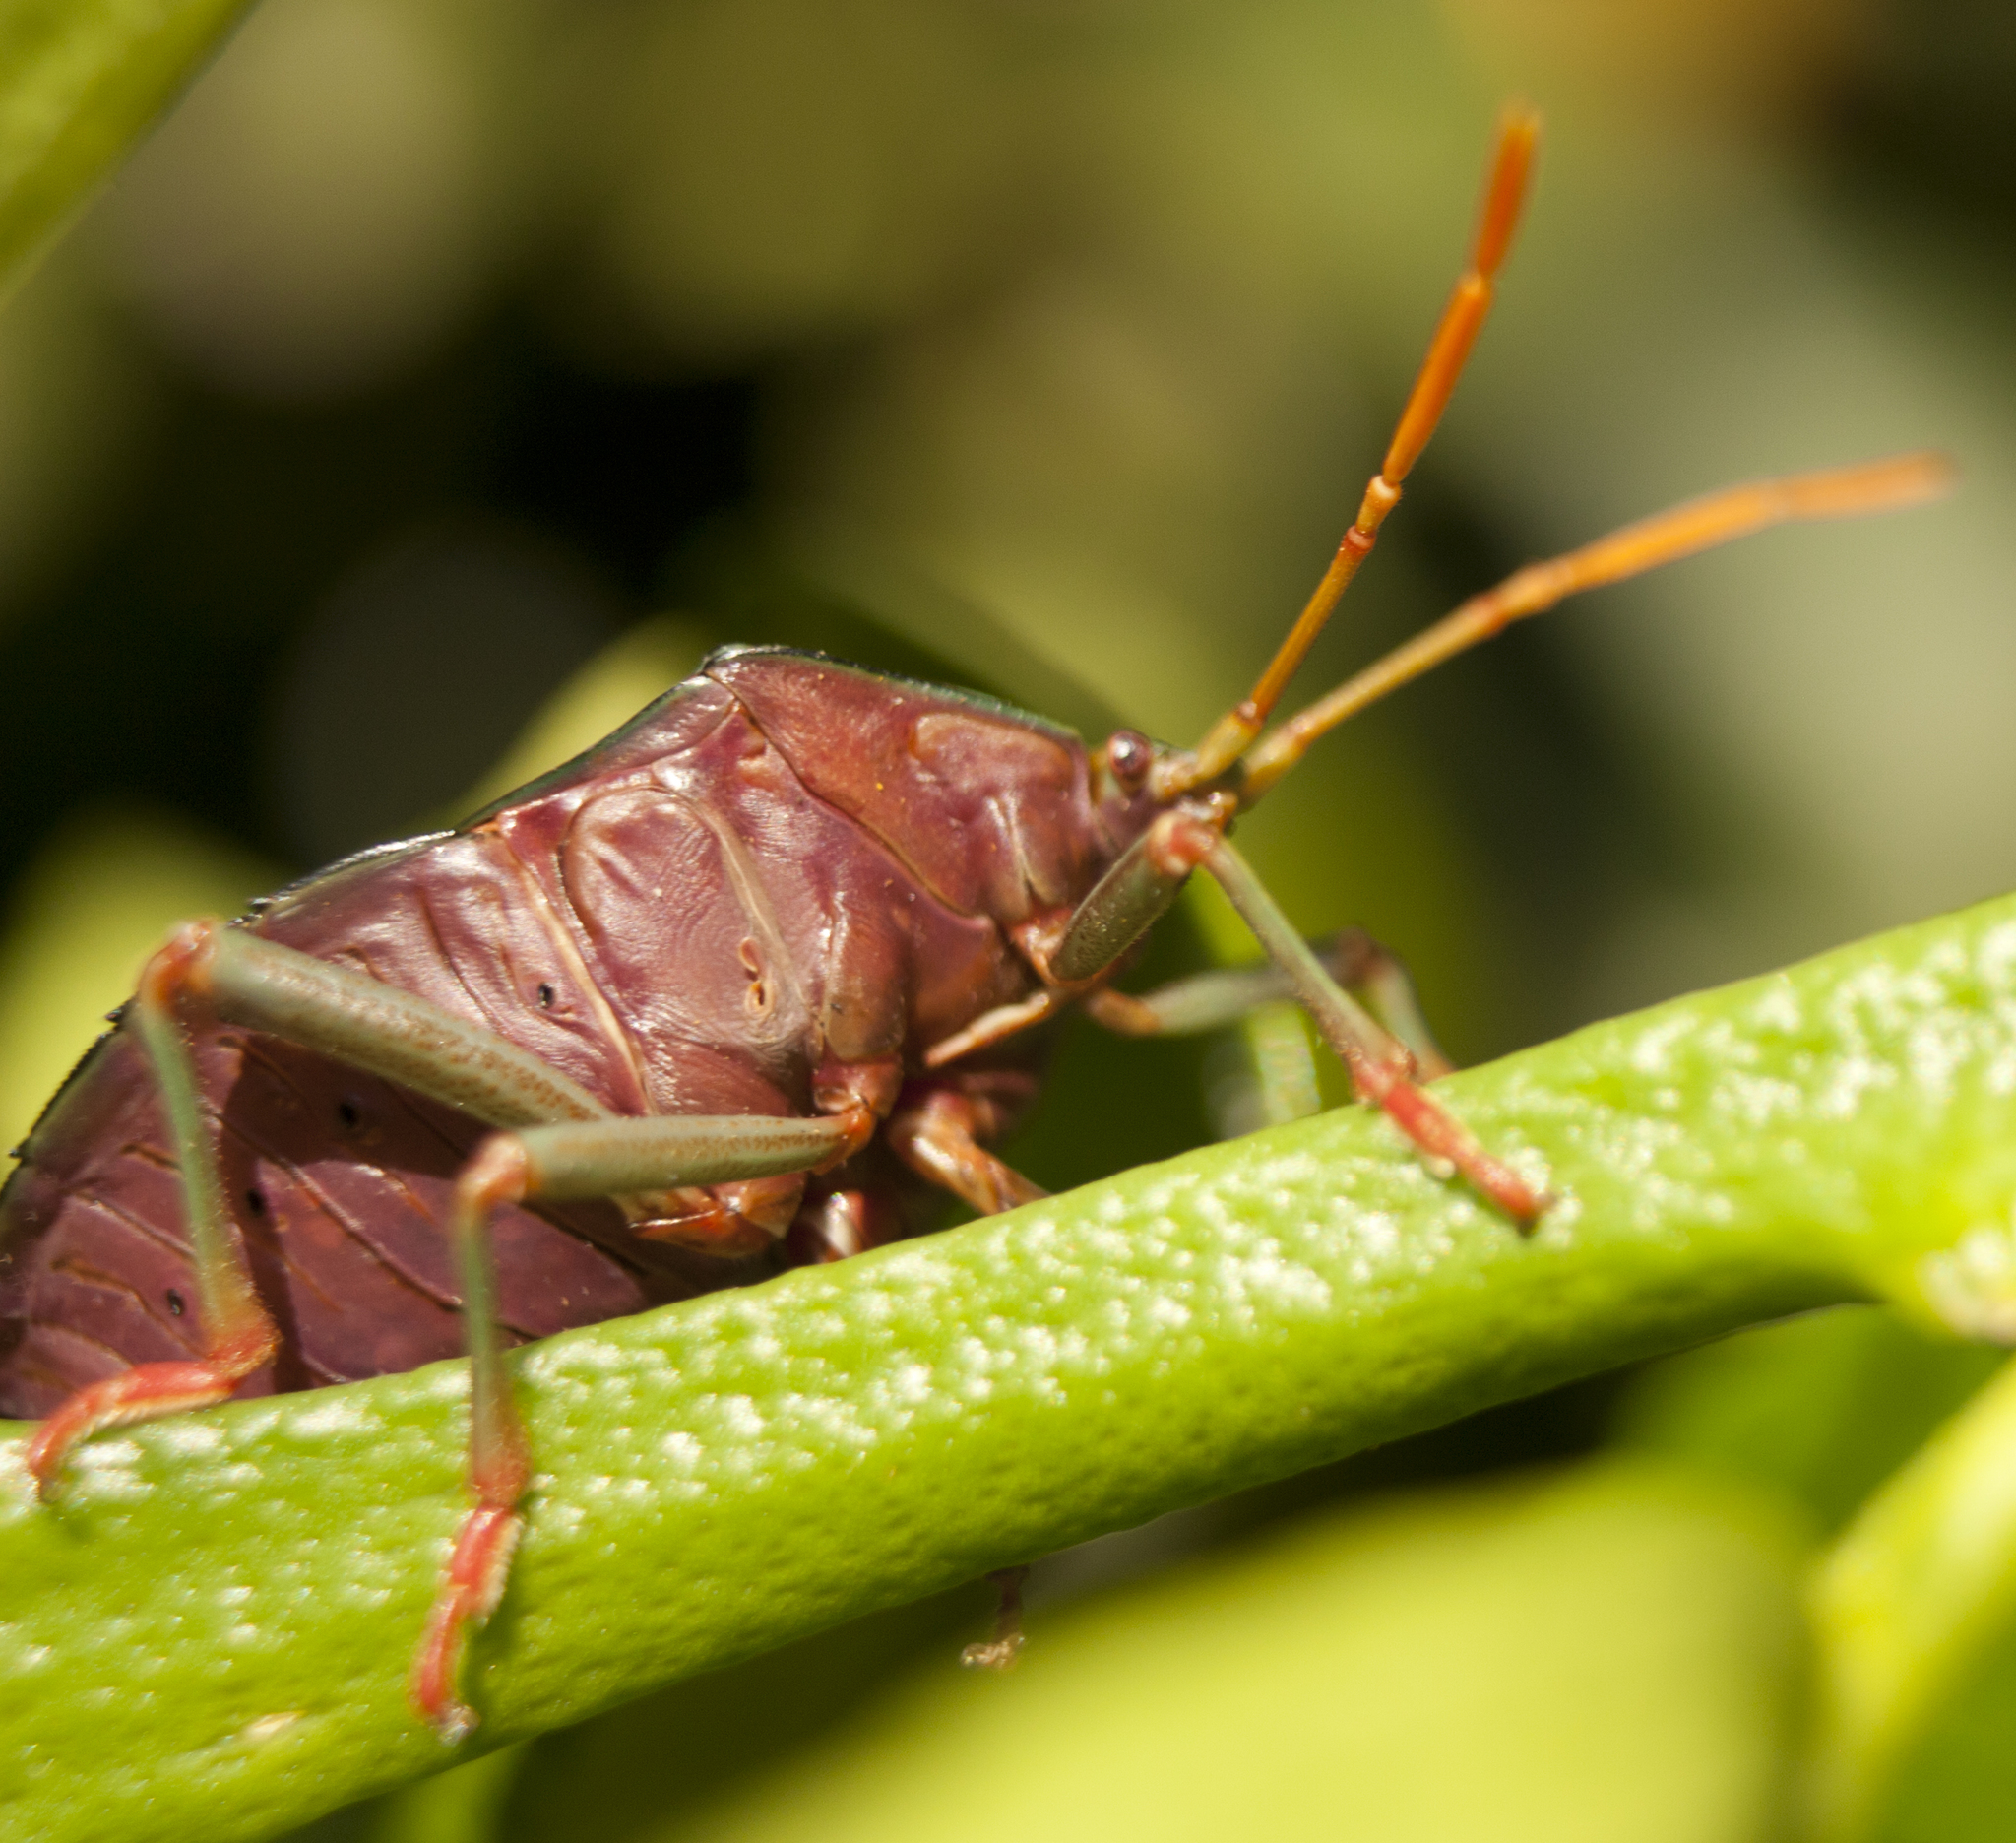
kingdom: Animalia
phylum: Arthropoda
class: Insecta
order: Hemiptera
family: Tessaratomidae
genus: Musgraveia
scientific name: Musgraveia sulciventris
